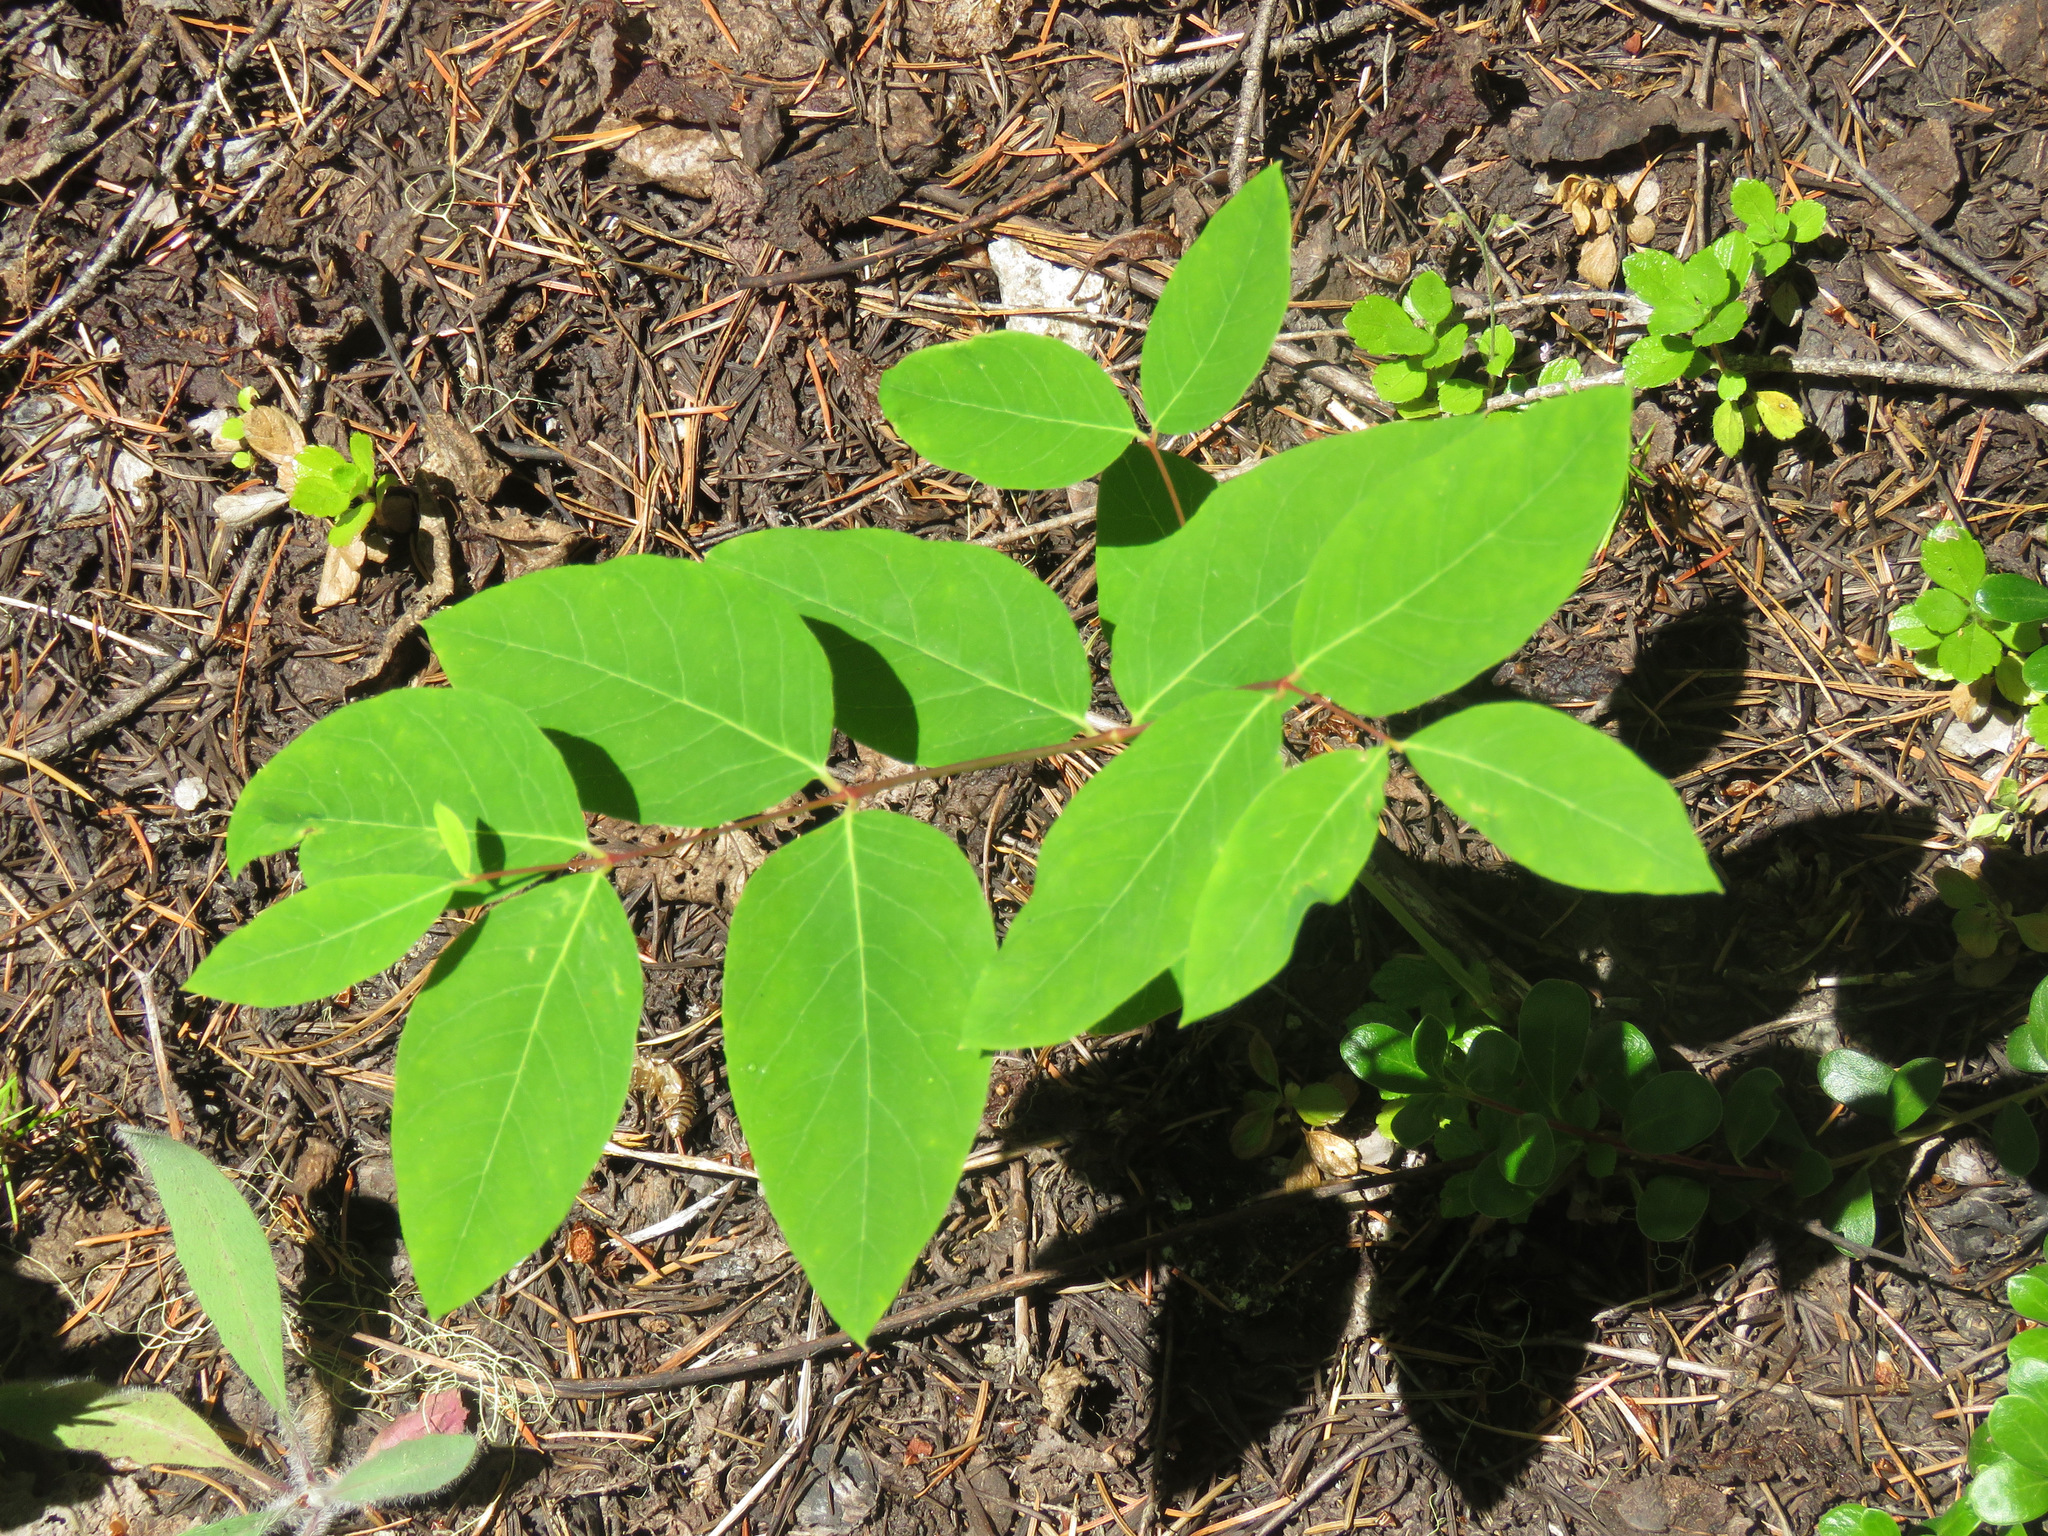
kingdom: Plantae
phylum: Tracheophyta
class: Magnoliopsida
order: Gentianales
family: Apocynaceae
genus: Apocynum
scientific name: Apocynum androsaemifolium
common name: Spreading dogbane
